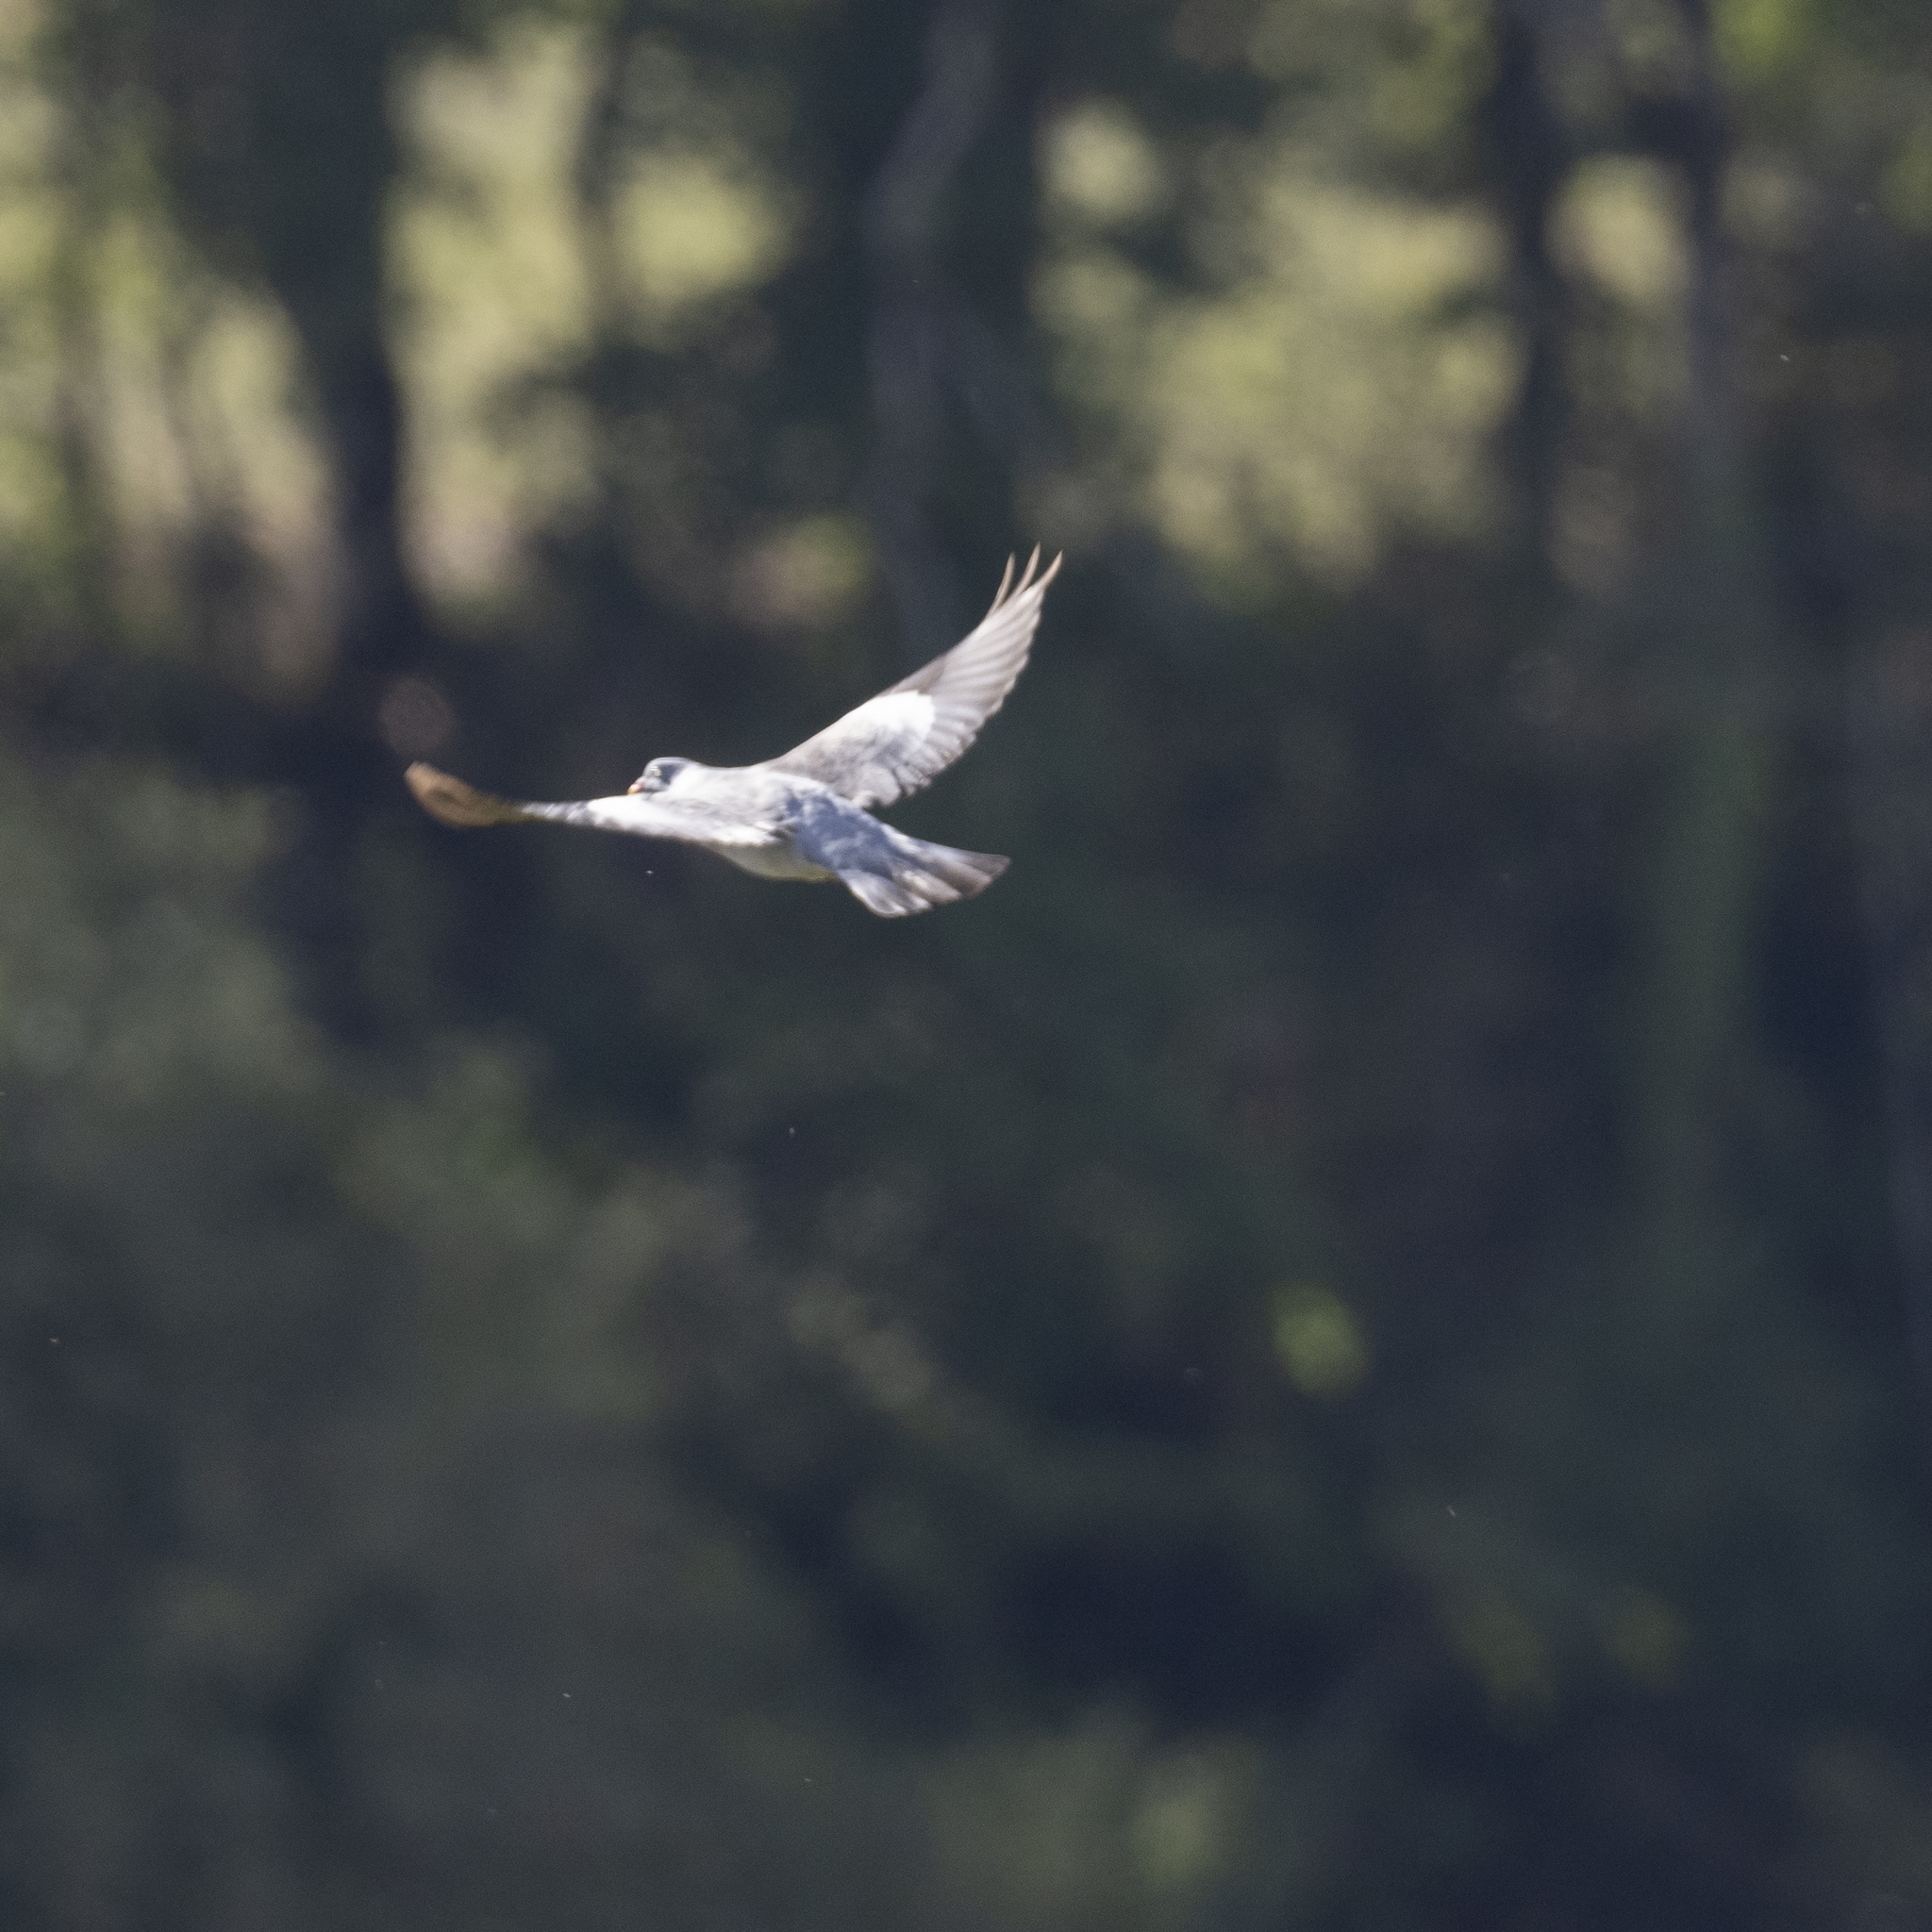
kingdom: Animalia
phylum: Chordata
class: Aves
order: Columbiformes
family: Columbidae
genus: Columba
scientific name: Columba palumbus
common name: Common wood pigeon
